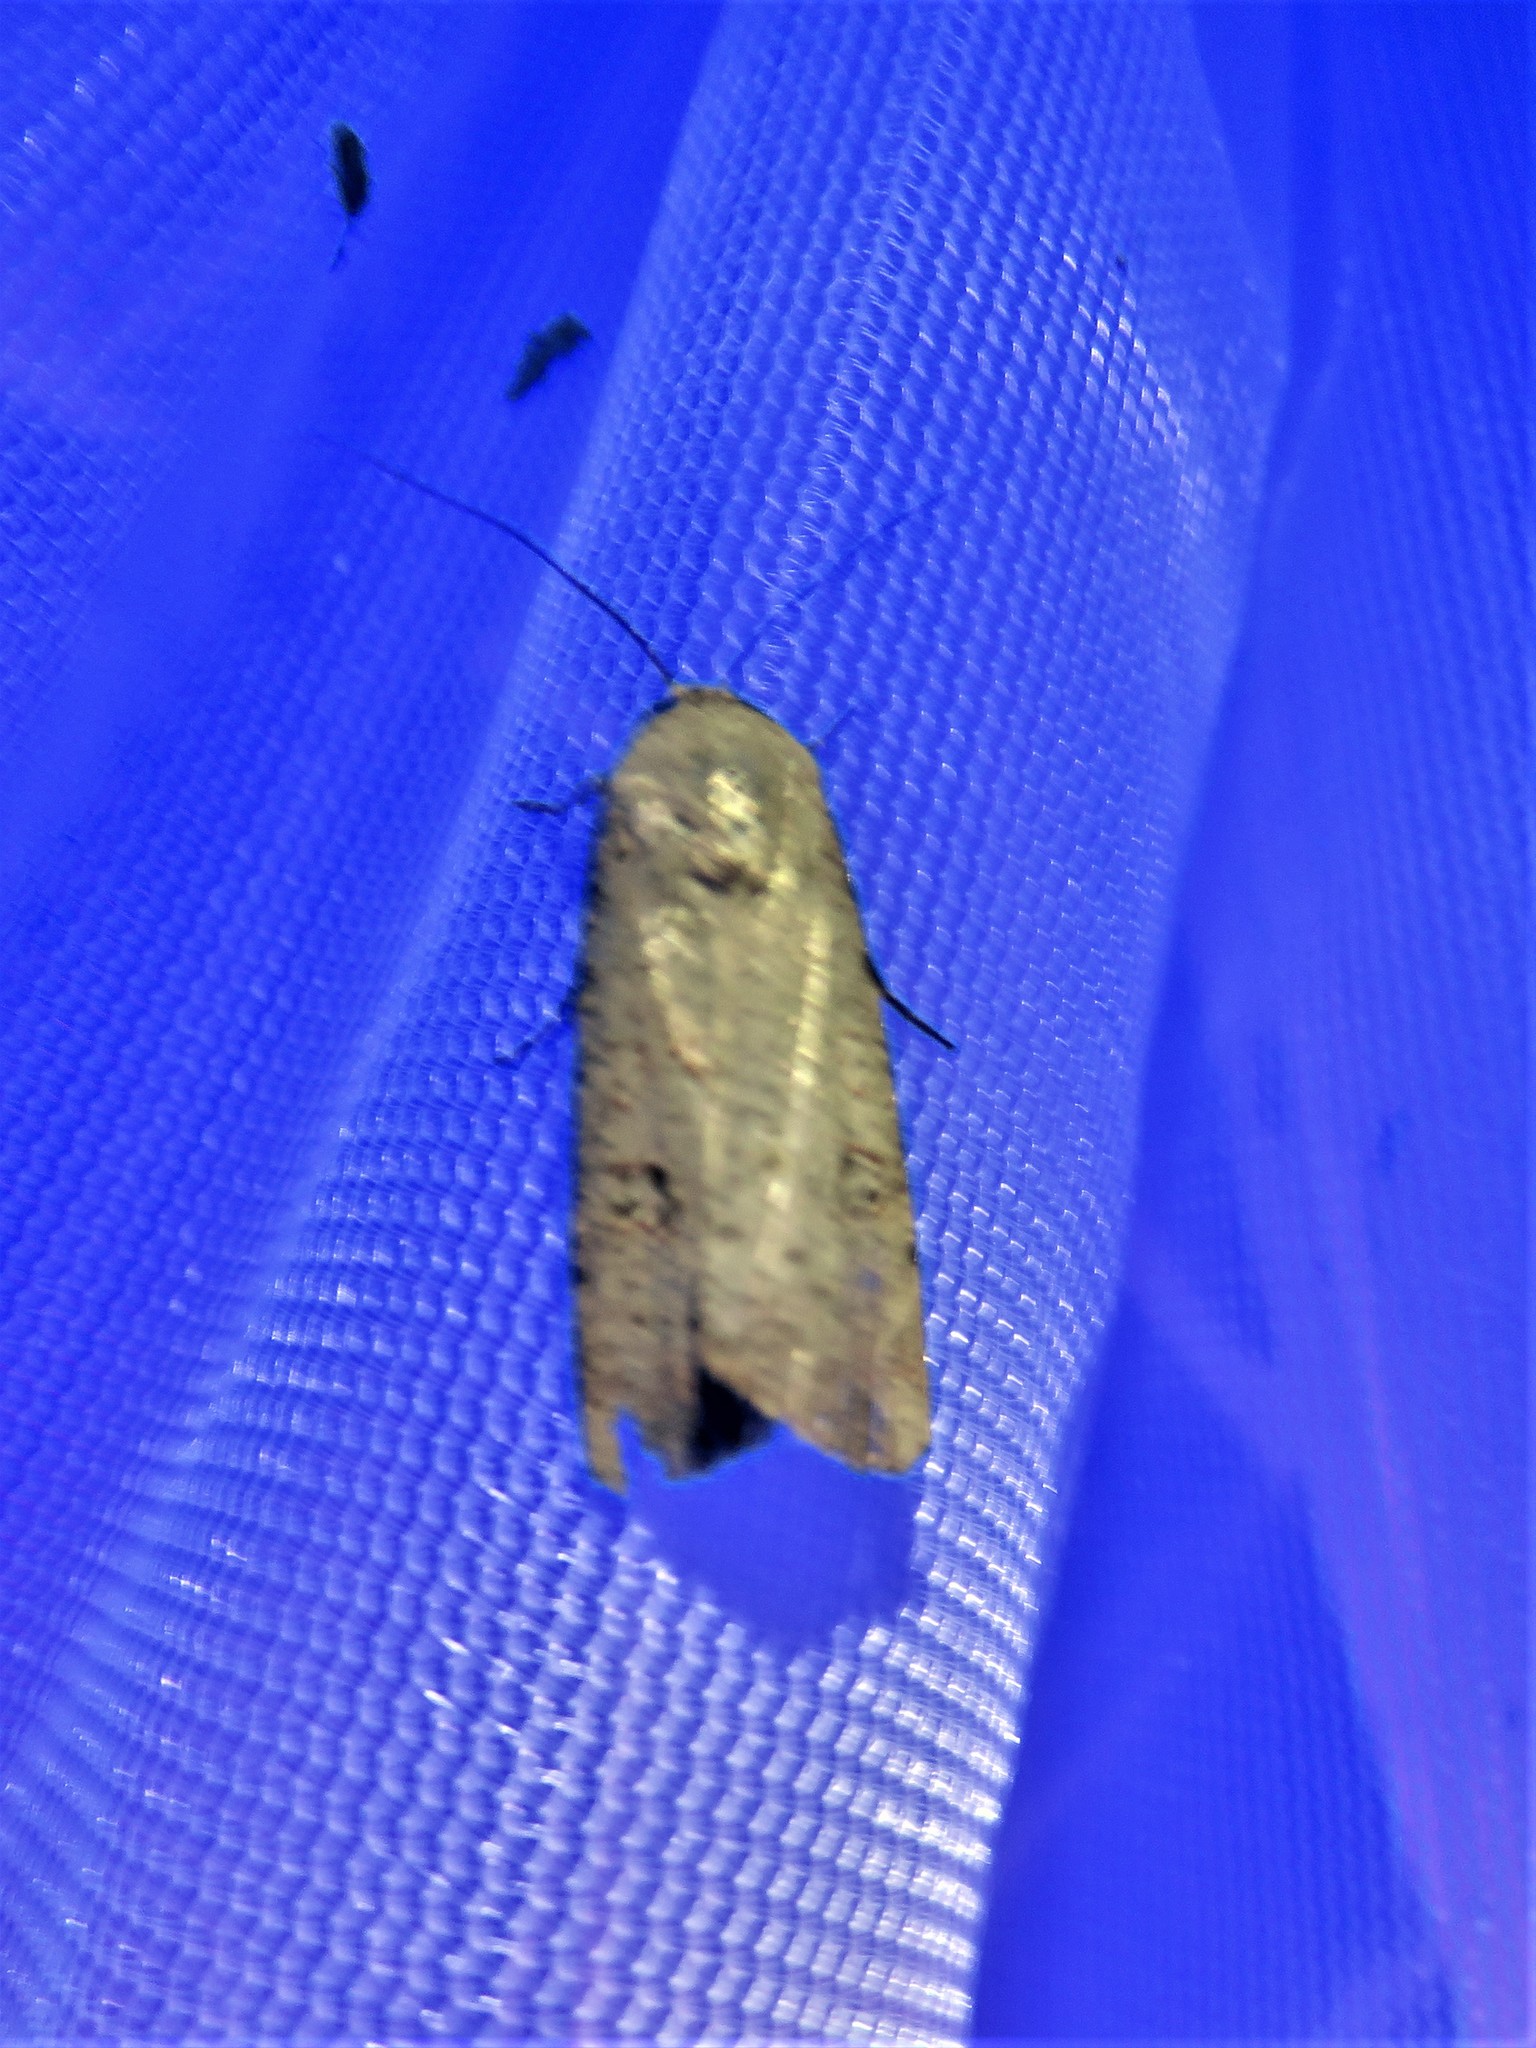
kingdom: Animalia
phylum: Arthropoda
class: Insecta
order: Lepidoptera
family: Noctuidae
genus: Anicla
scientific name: Anicla infecta
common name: Green cutworm
